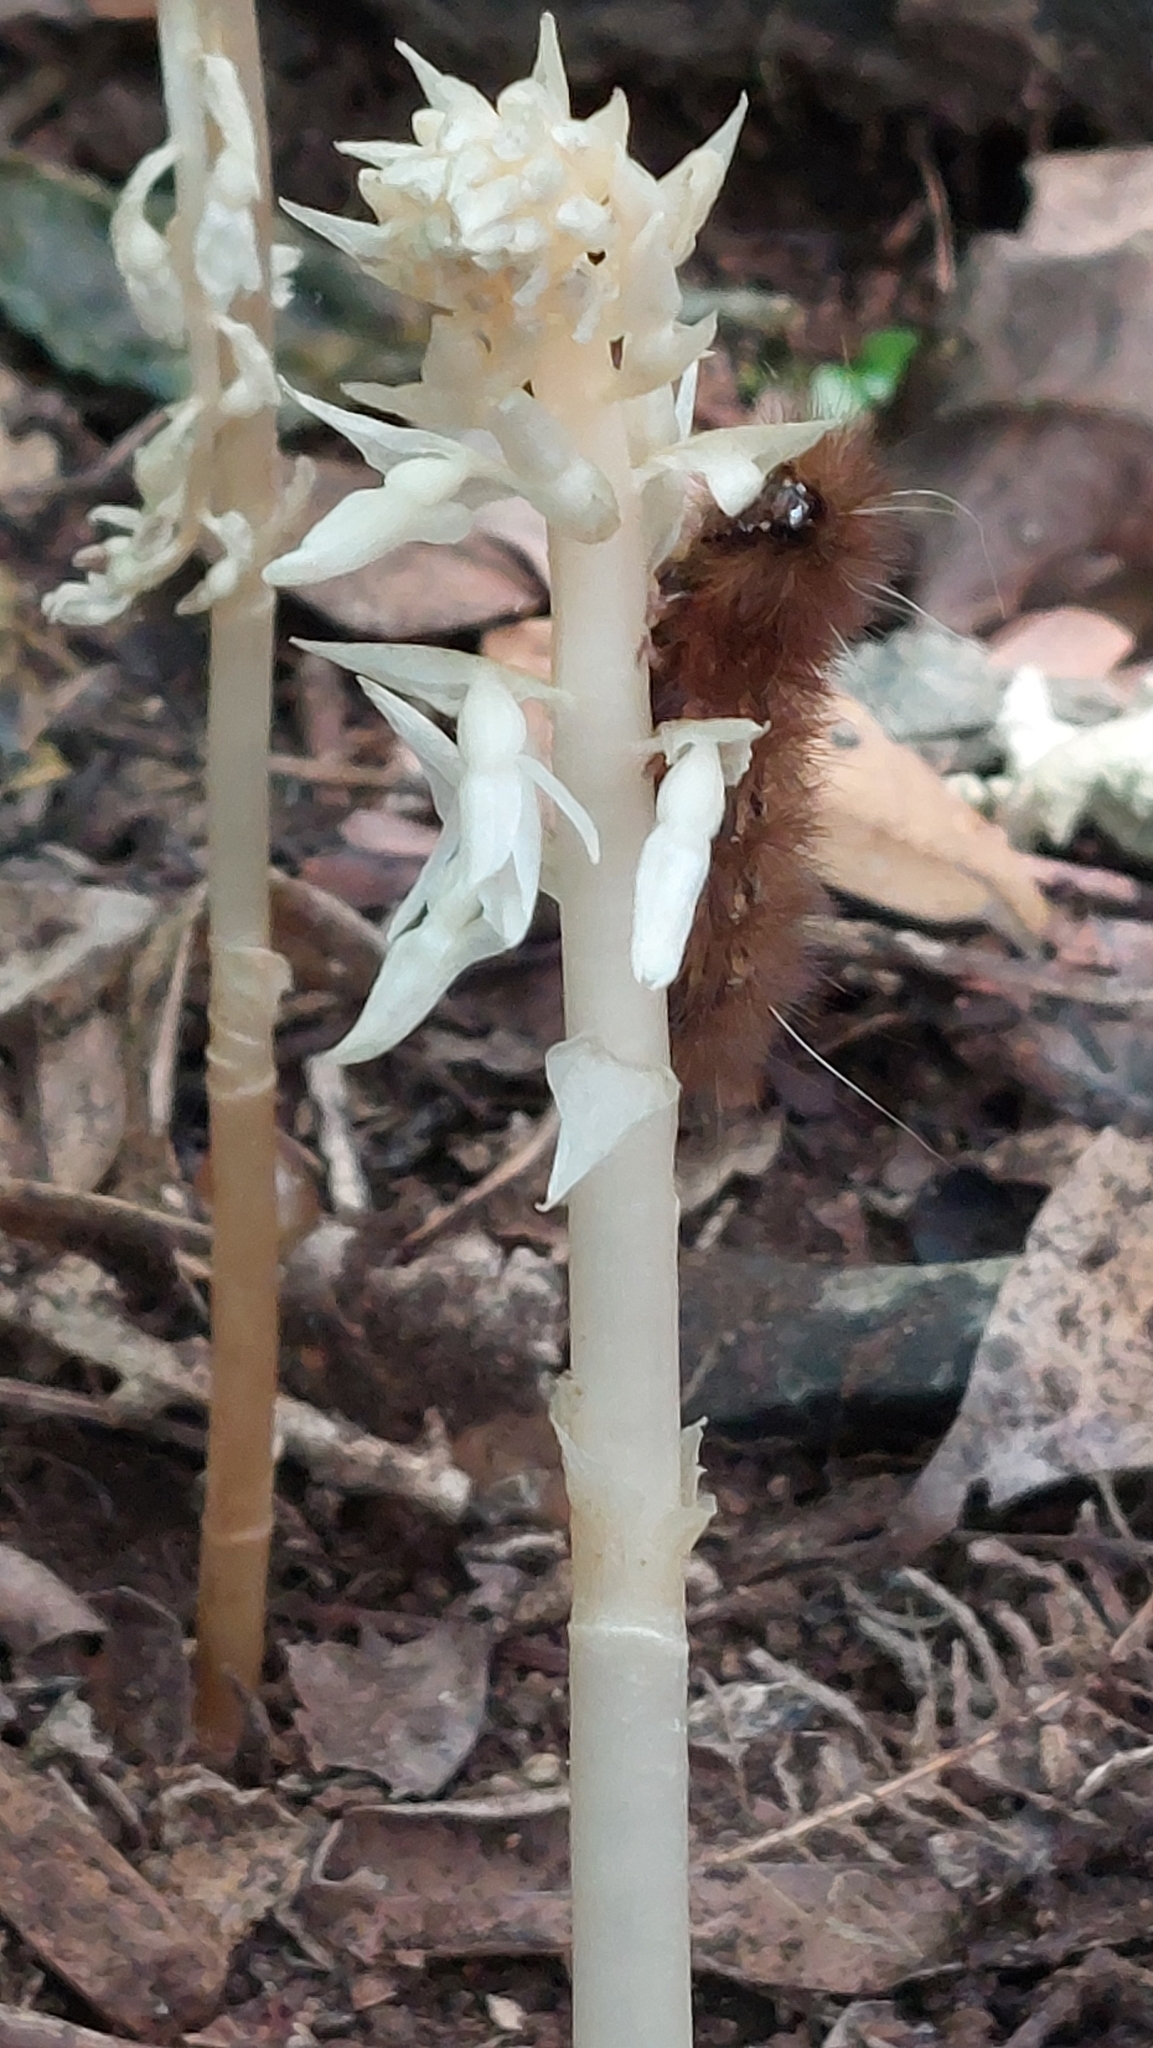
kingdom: Plantae
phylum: Tracheophyta
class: Liliopsida
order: Asparagales
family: Orchidaceae
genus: Epipogium
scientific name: Epipogium roseum
